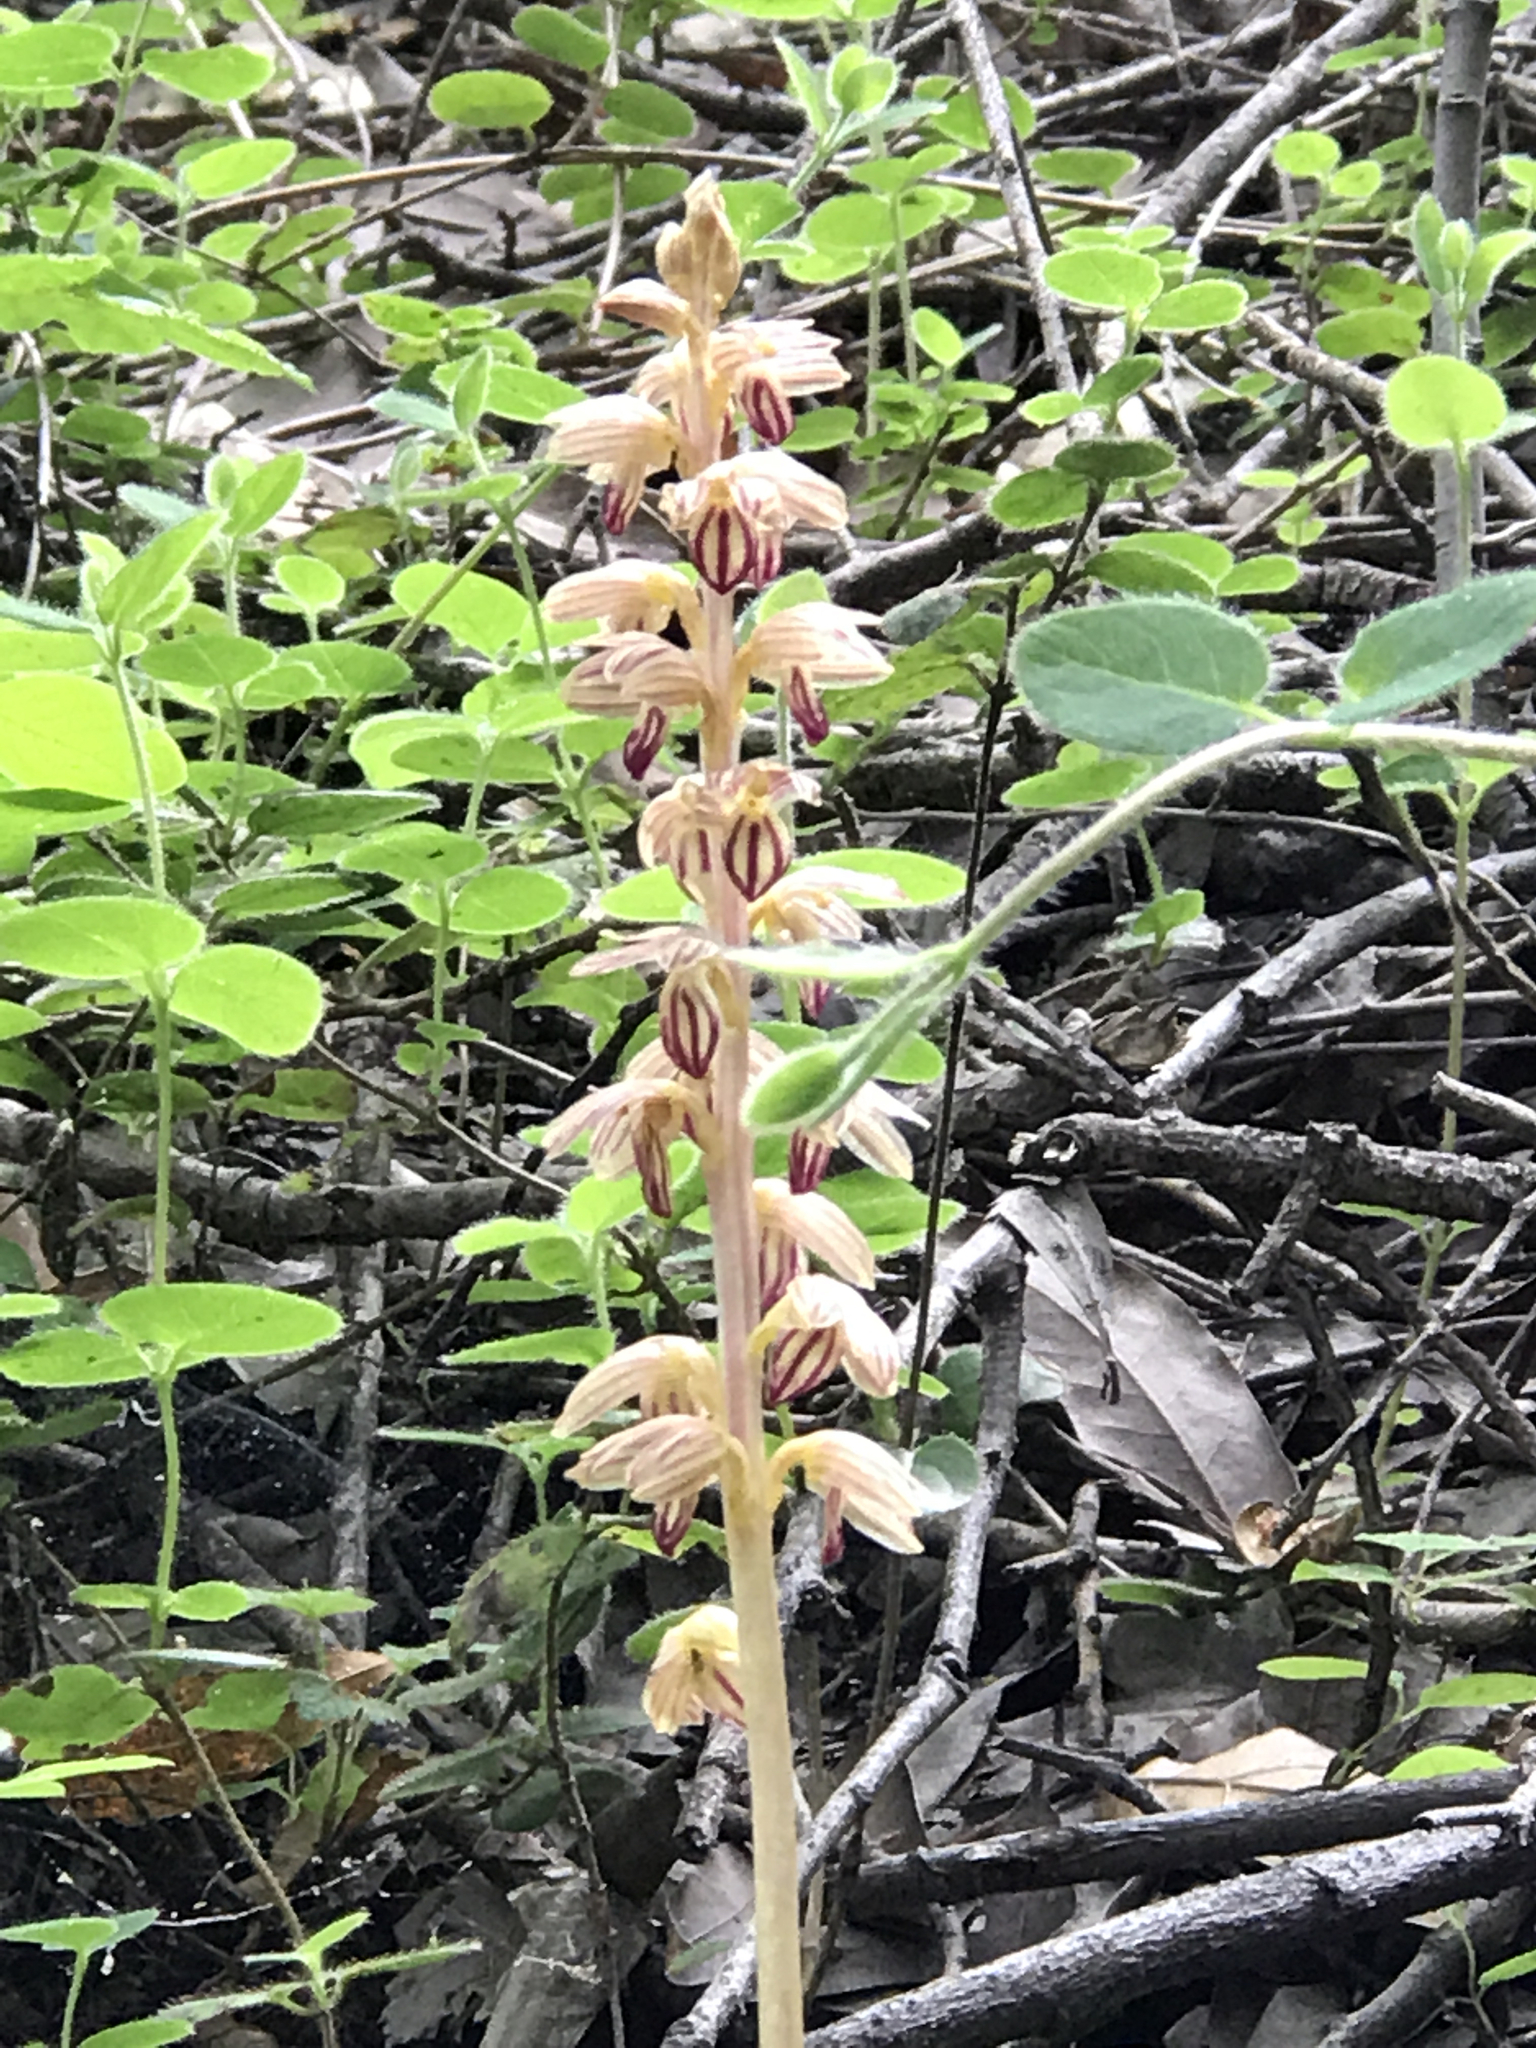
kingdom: Plantae
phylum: Tracheophyta
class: Liliopsida
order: Asparagales
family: Orchidaceae
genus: Corallorhiza
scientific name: Corallorhiza striata
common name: Hooded coralroot
